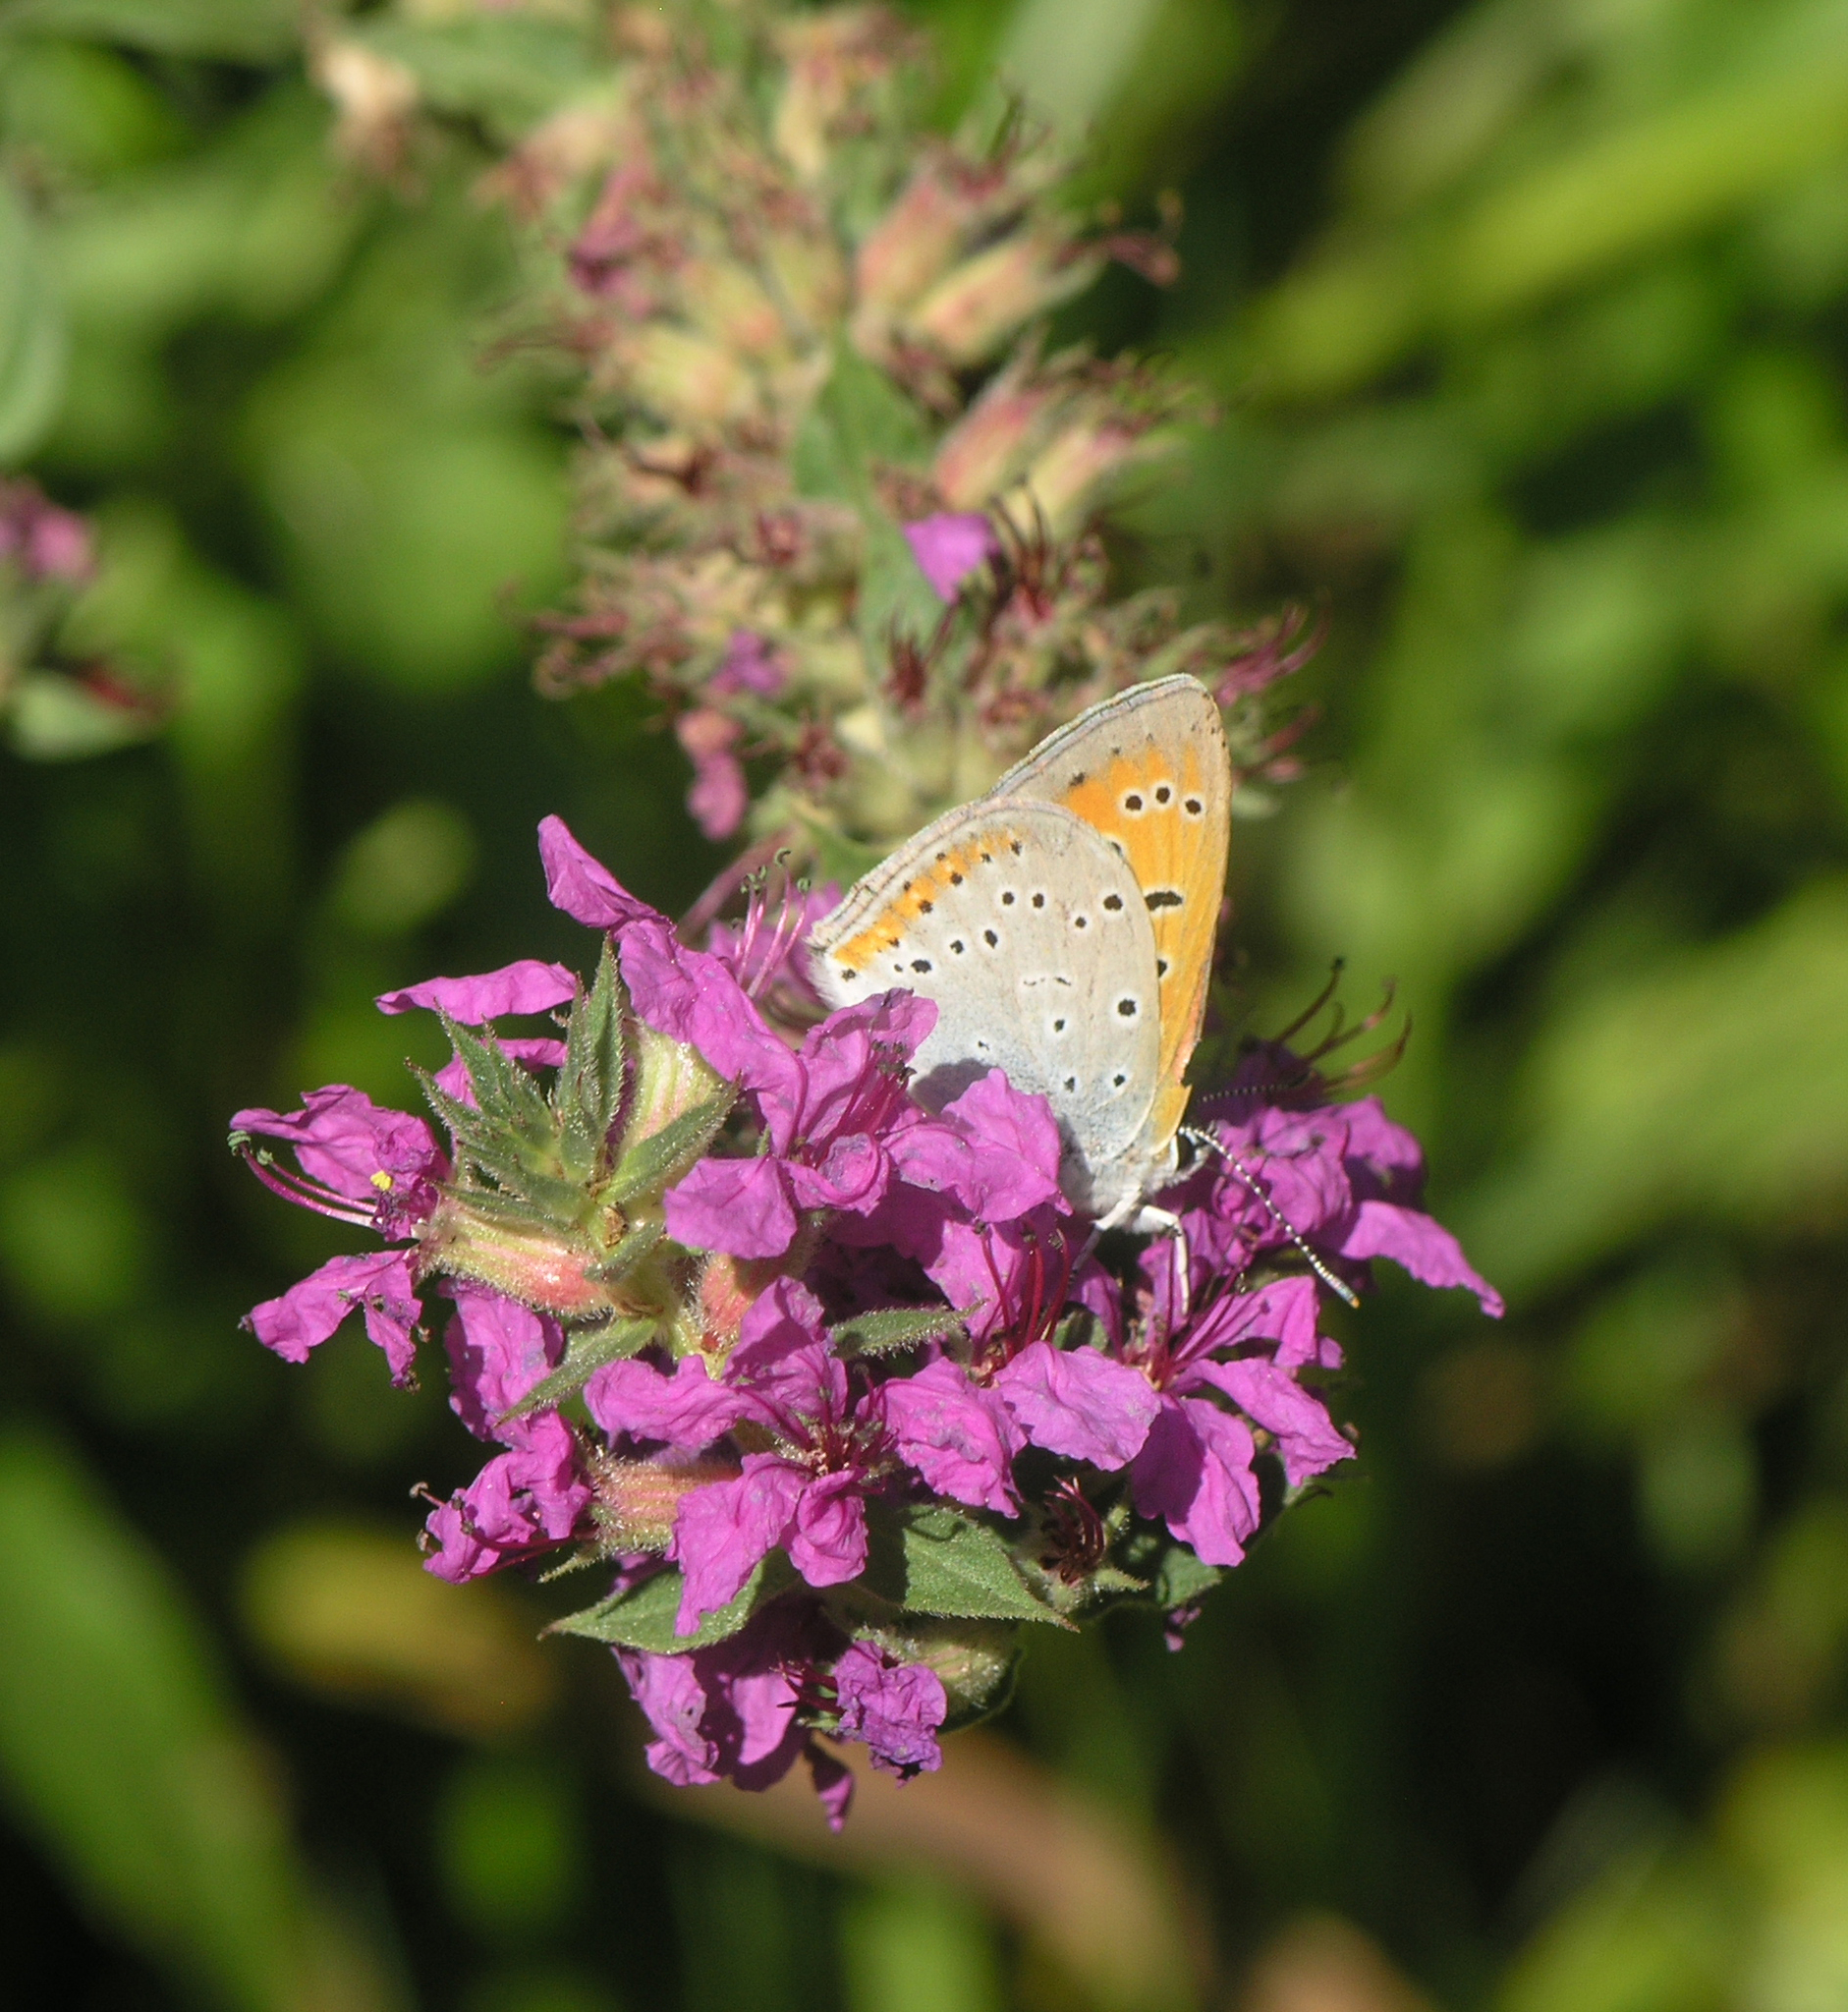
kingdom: Animalia
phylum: Arthropoda
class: Insecta
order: Lepidoptera
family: Lycaenidae
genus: Lycaena
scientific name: Lycaena dispar
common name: Large copper
